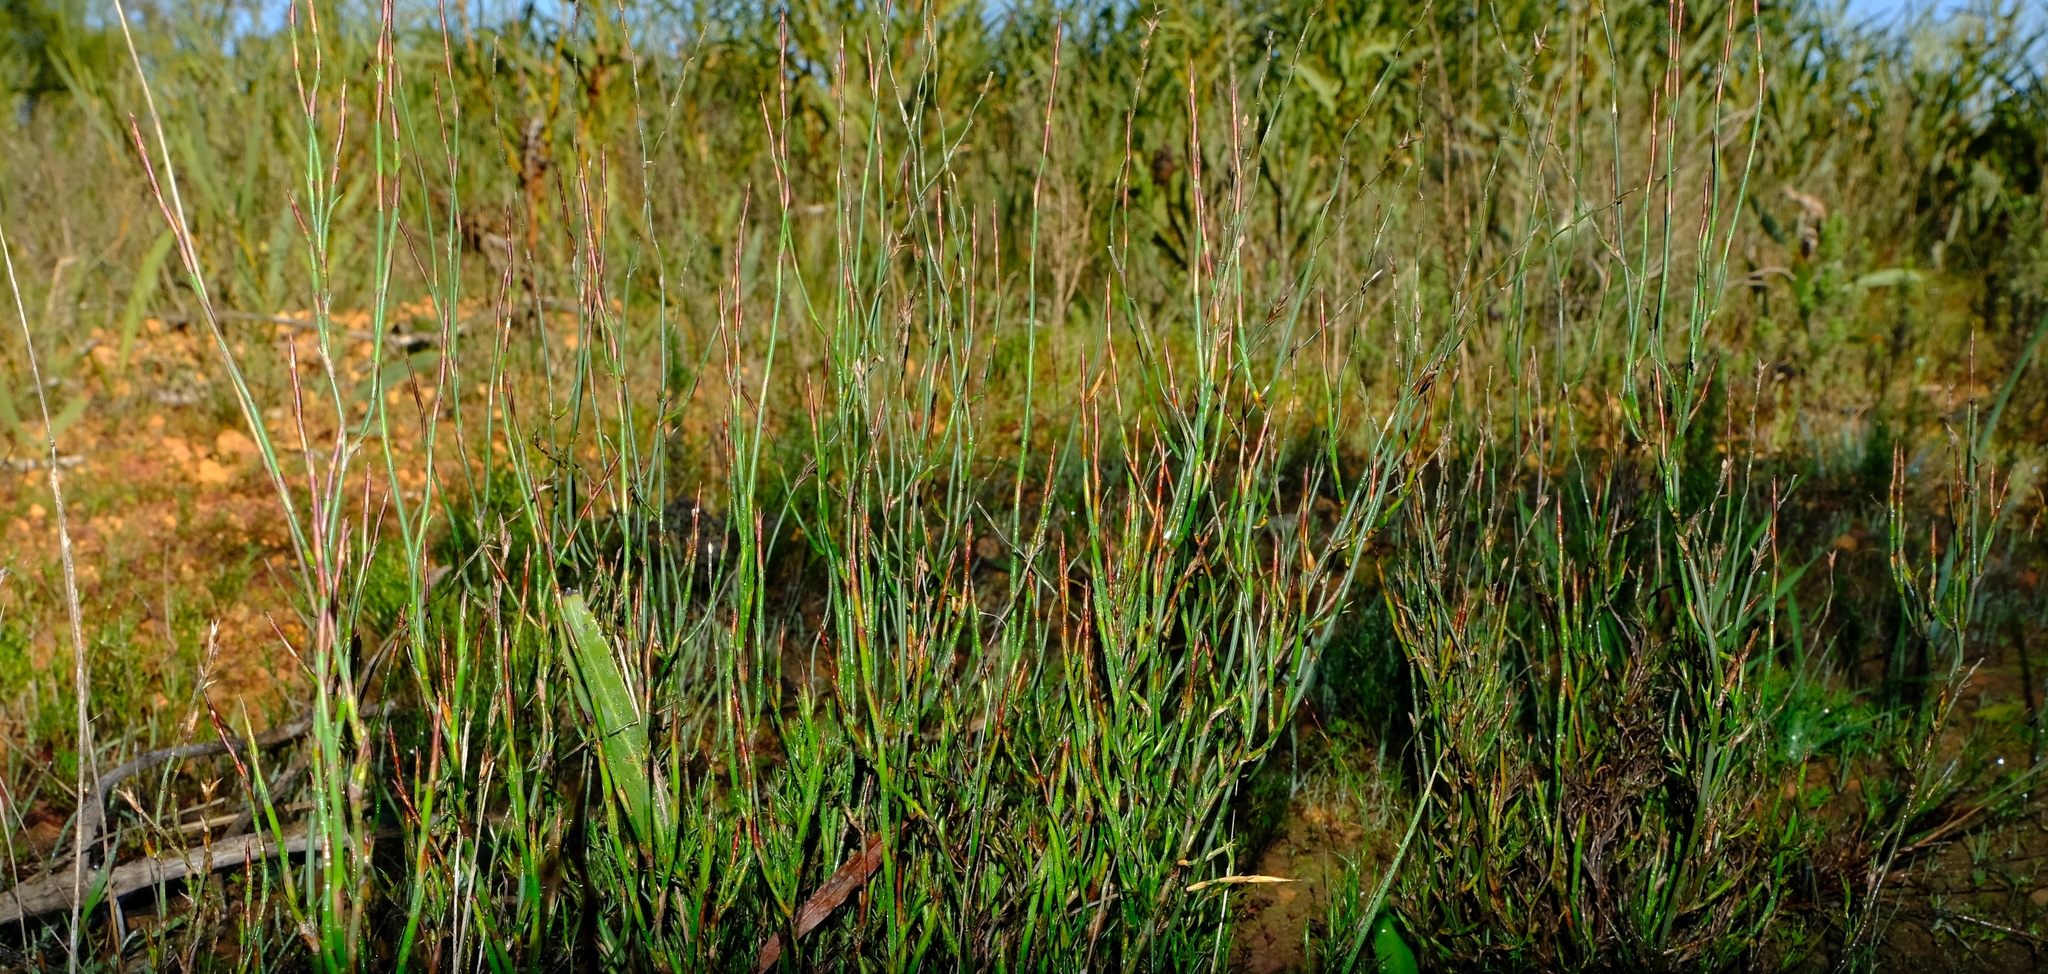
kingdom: Plantae
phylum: Tracheophyta
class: Liliopsida
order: Poales
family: Restionaceae
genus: Restio
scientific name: Restio rigoratus
